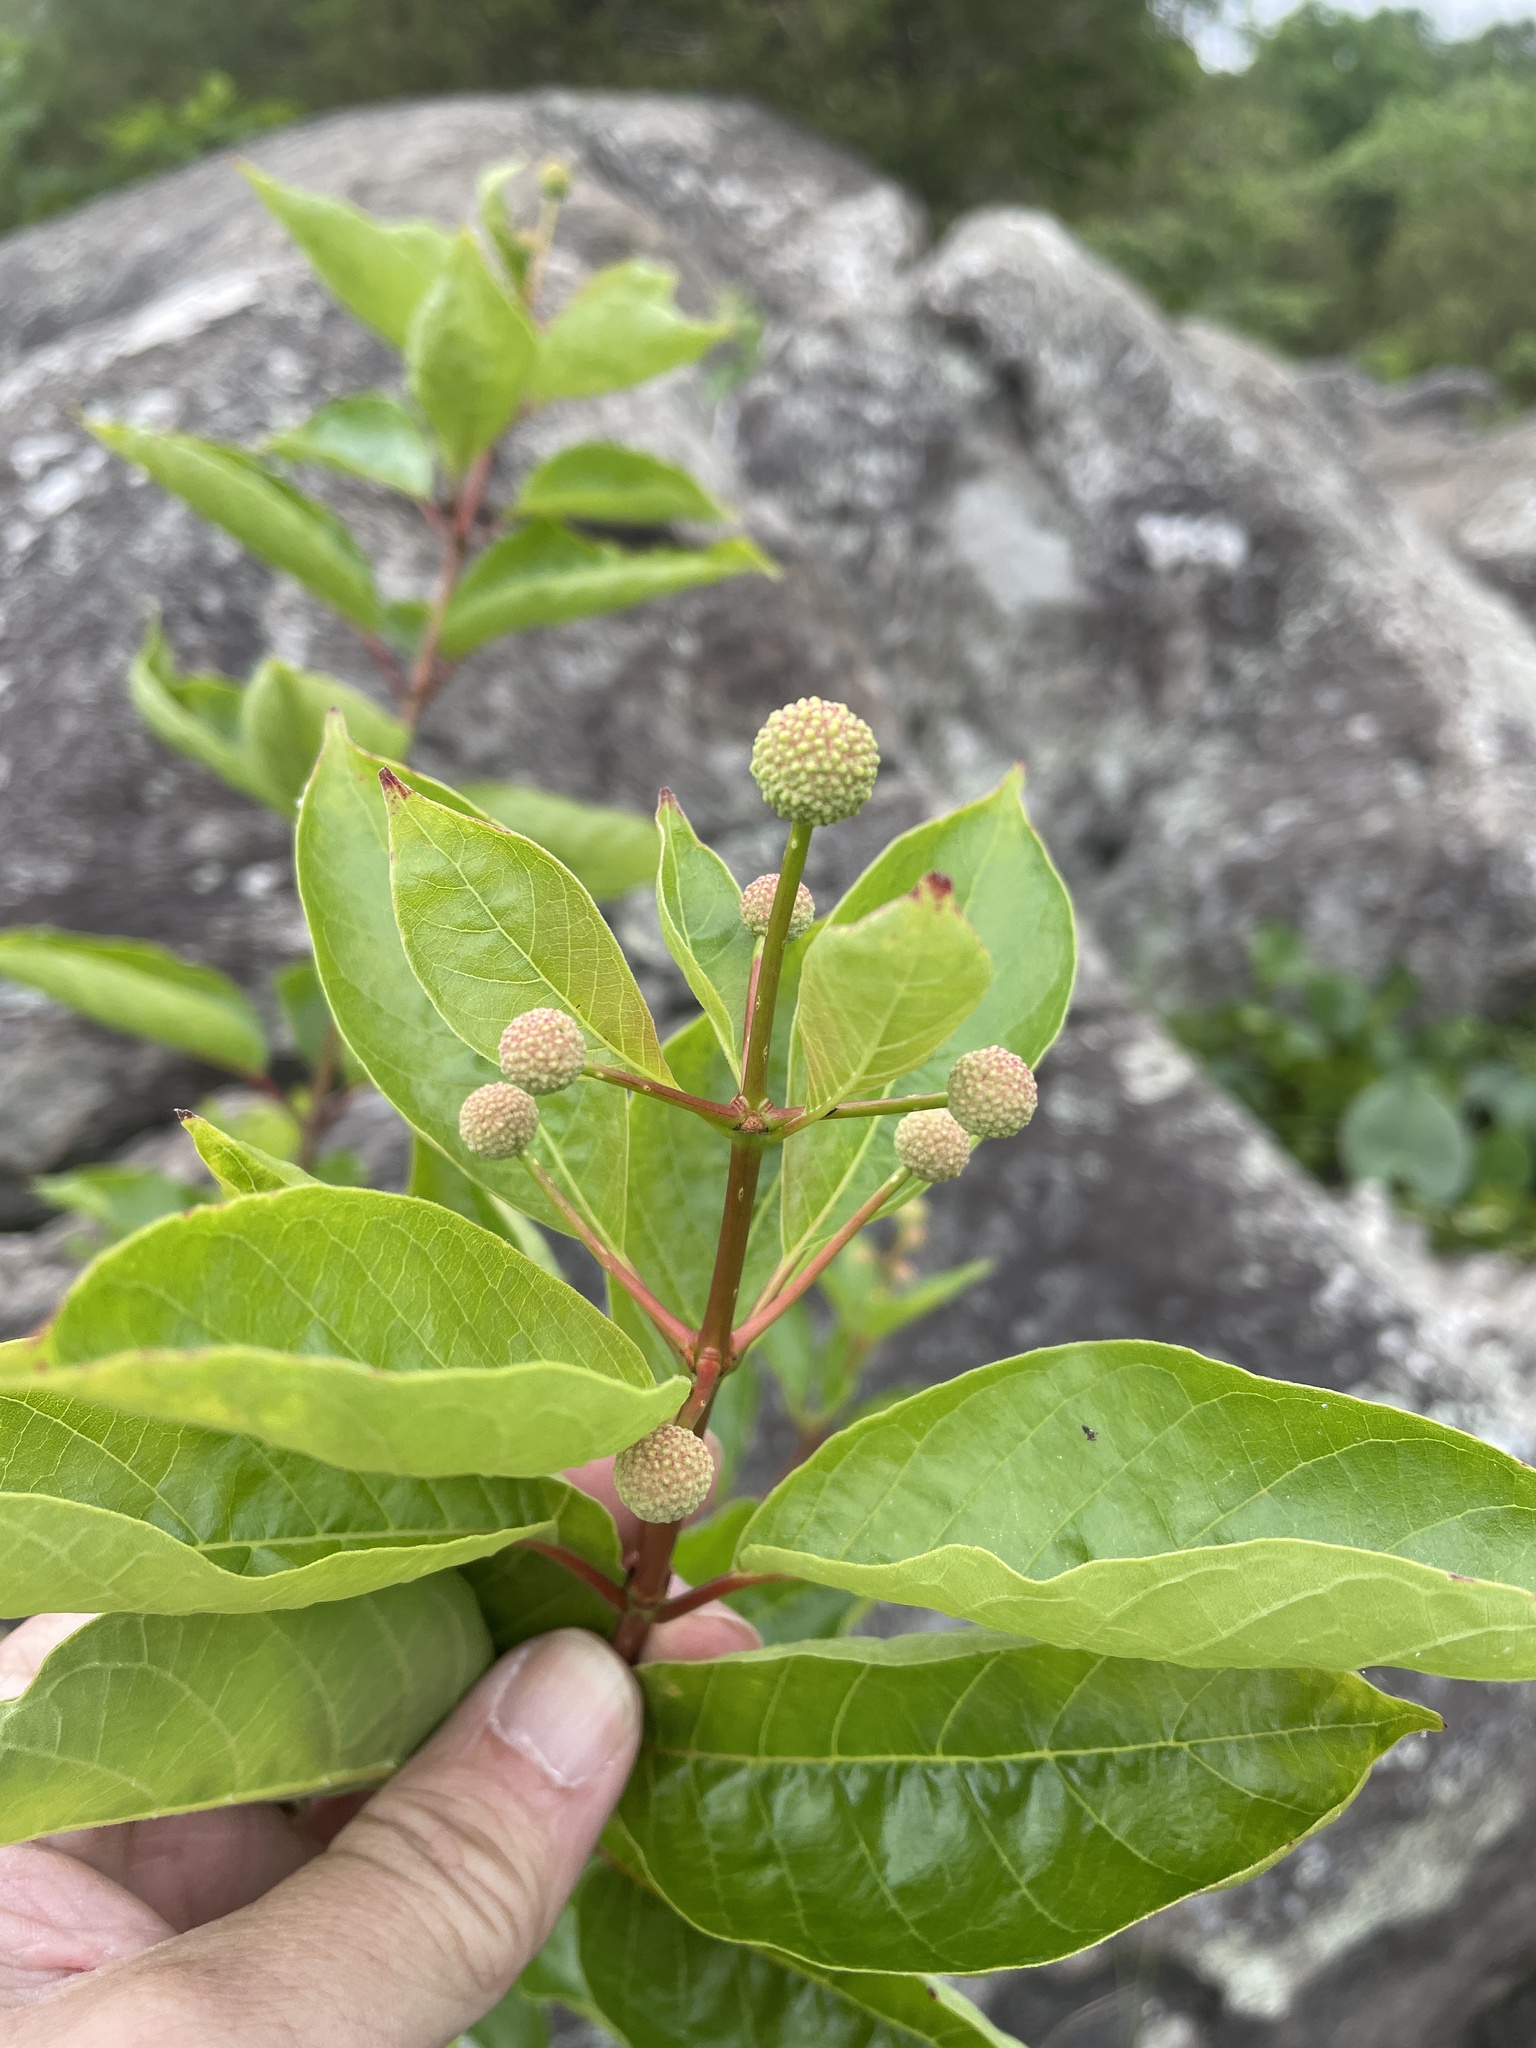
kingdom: Plantae
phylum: Tracheophyta
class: Magnoliopsida
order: Gentianales
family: Rubiaceae
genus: Cephalanthus
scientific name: Cephalanthus occidentalis
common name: Button-willow
